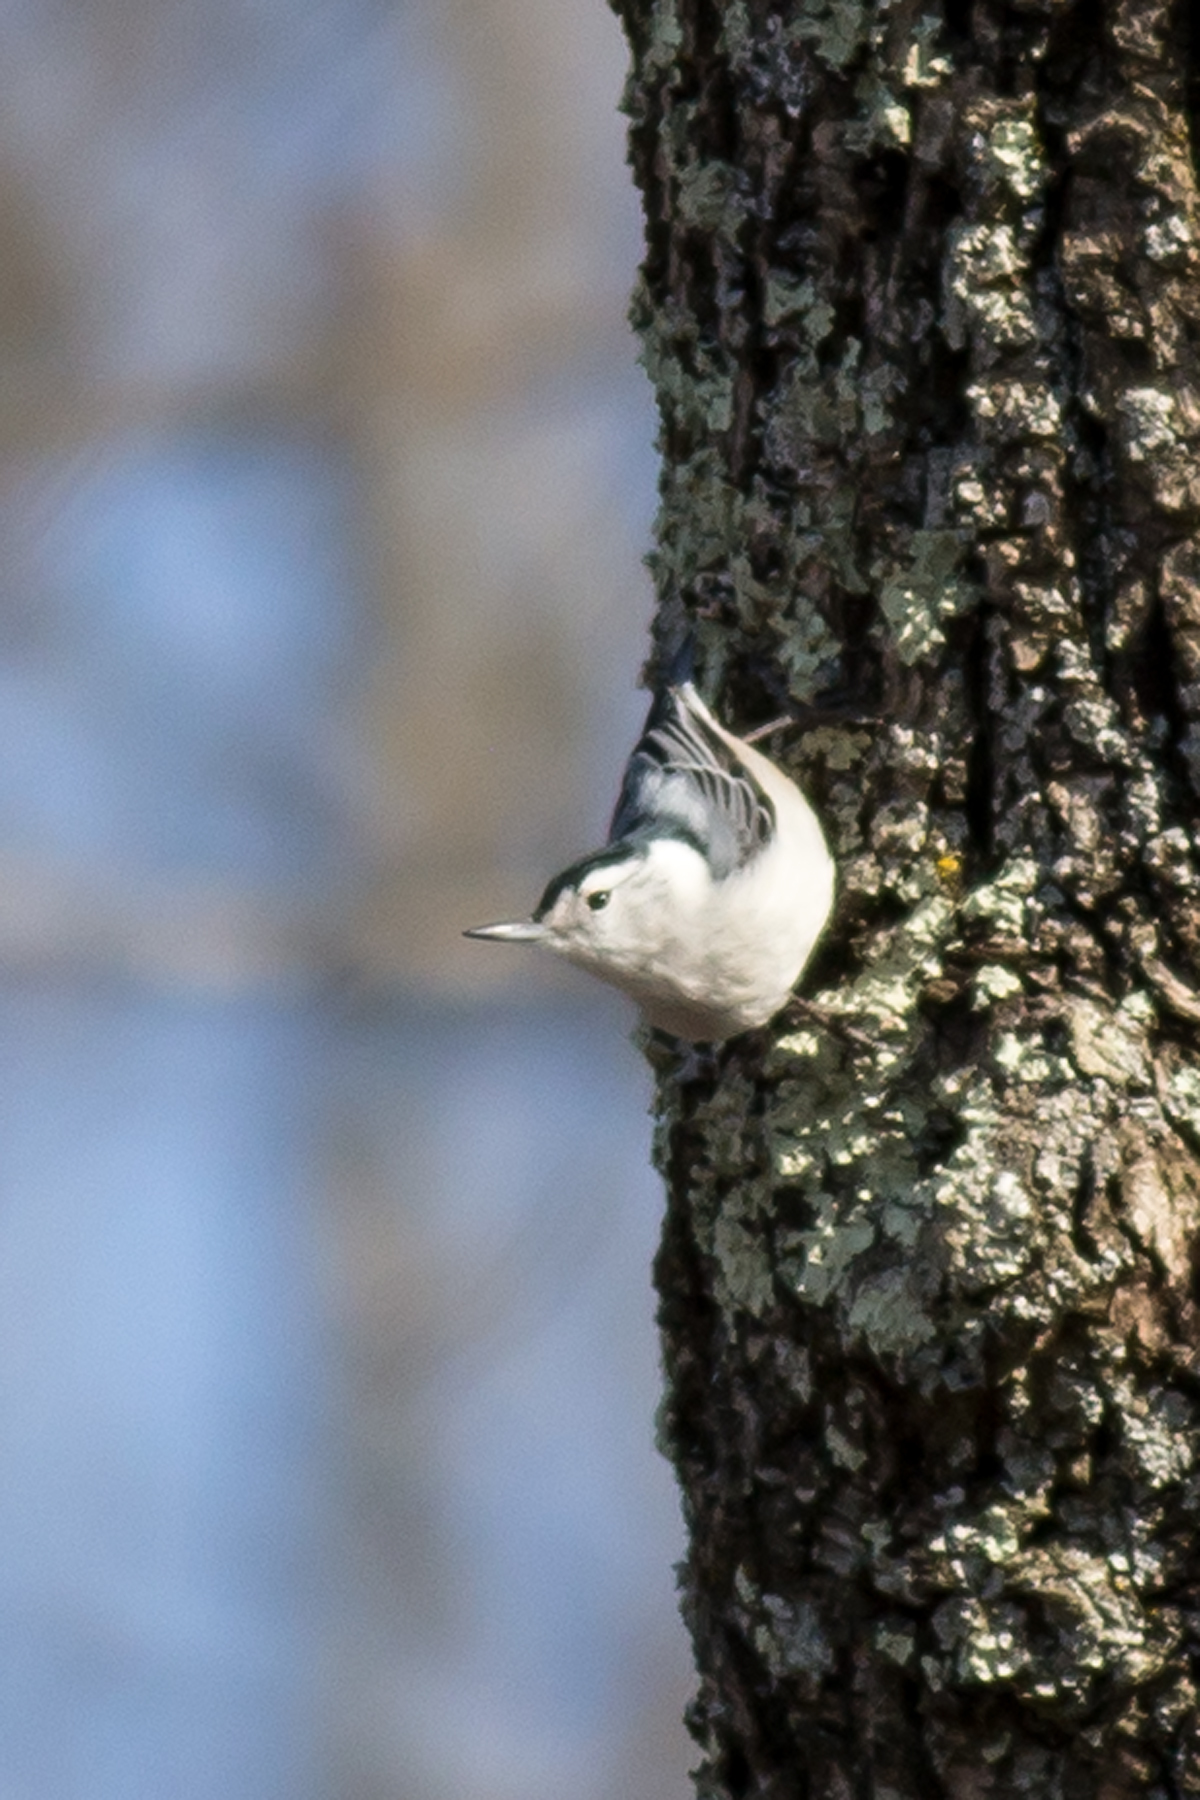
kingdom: Animalia
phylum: Chordata
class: Aves
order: Passeriformes
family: Sittidae
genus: Sitta
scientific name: Sitta carolinensis
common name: White-breasted nuthatch
